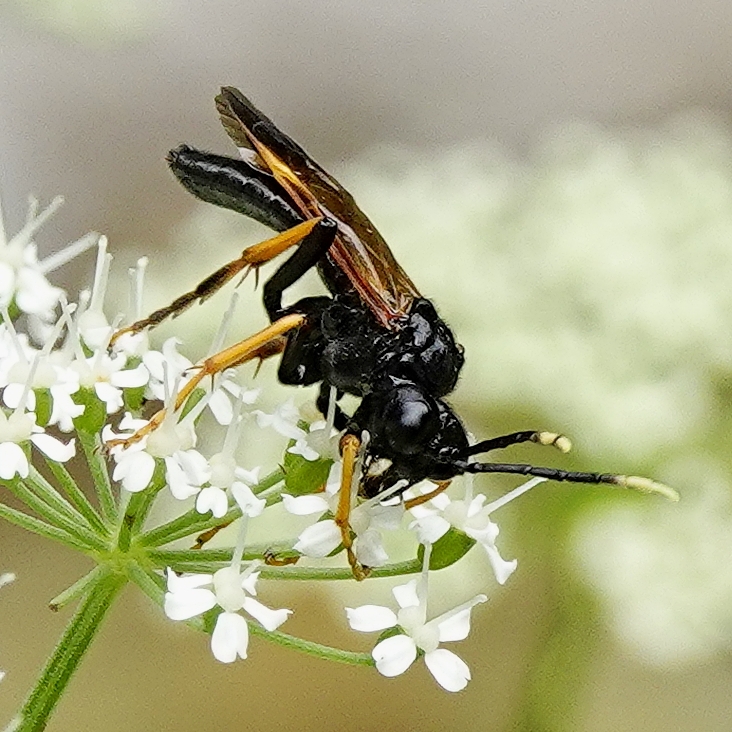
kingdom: Animalia
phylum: Arthropoda
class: Insecta
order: Hymenoptera
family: Tenthredinidae
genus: Tenthredo
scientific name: Tenthredo crassa
